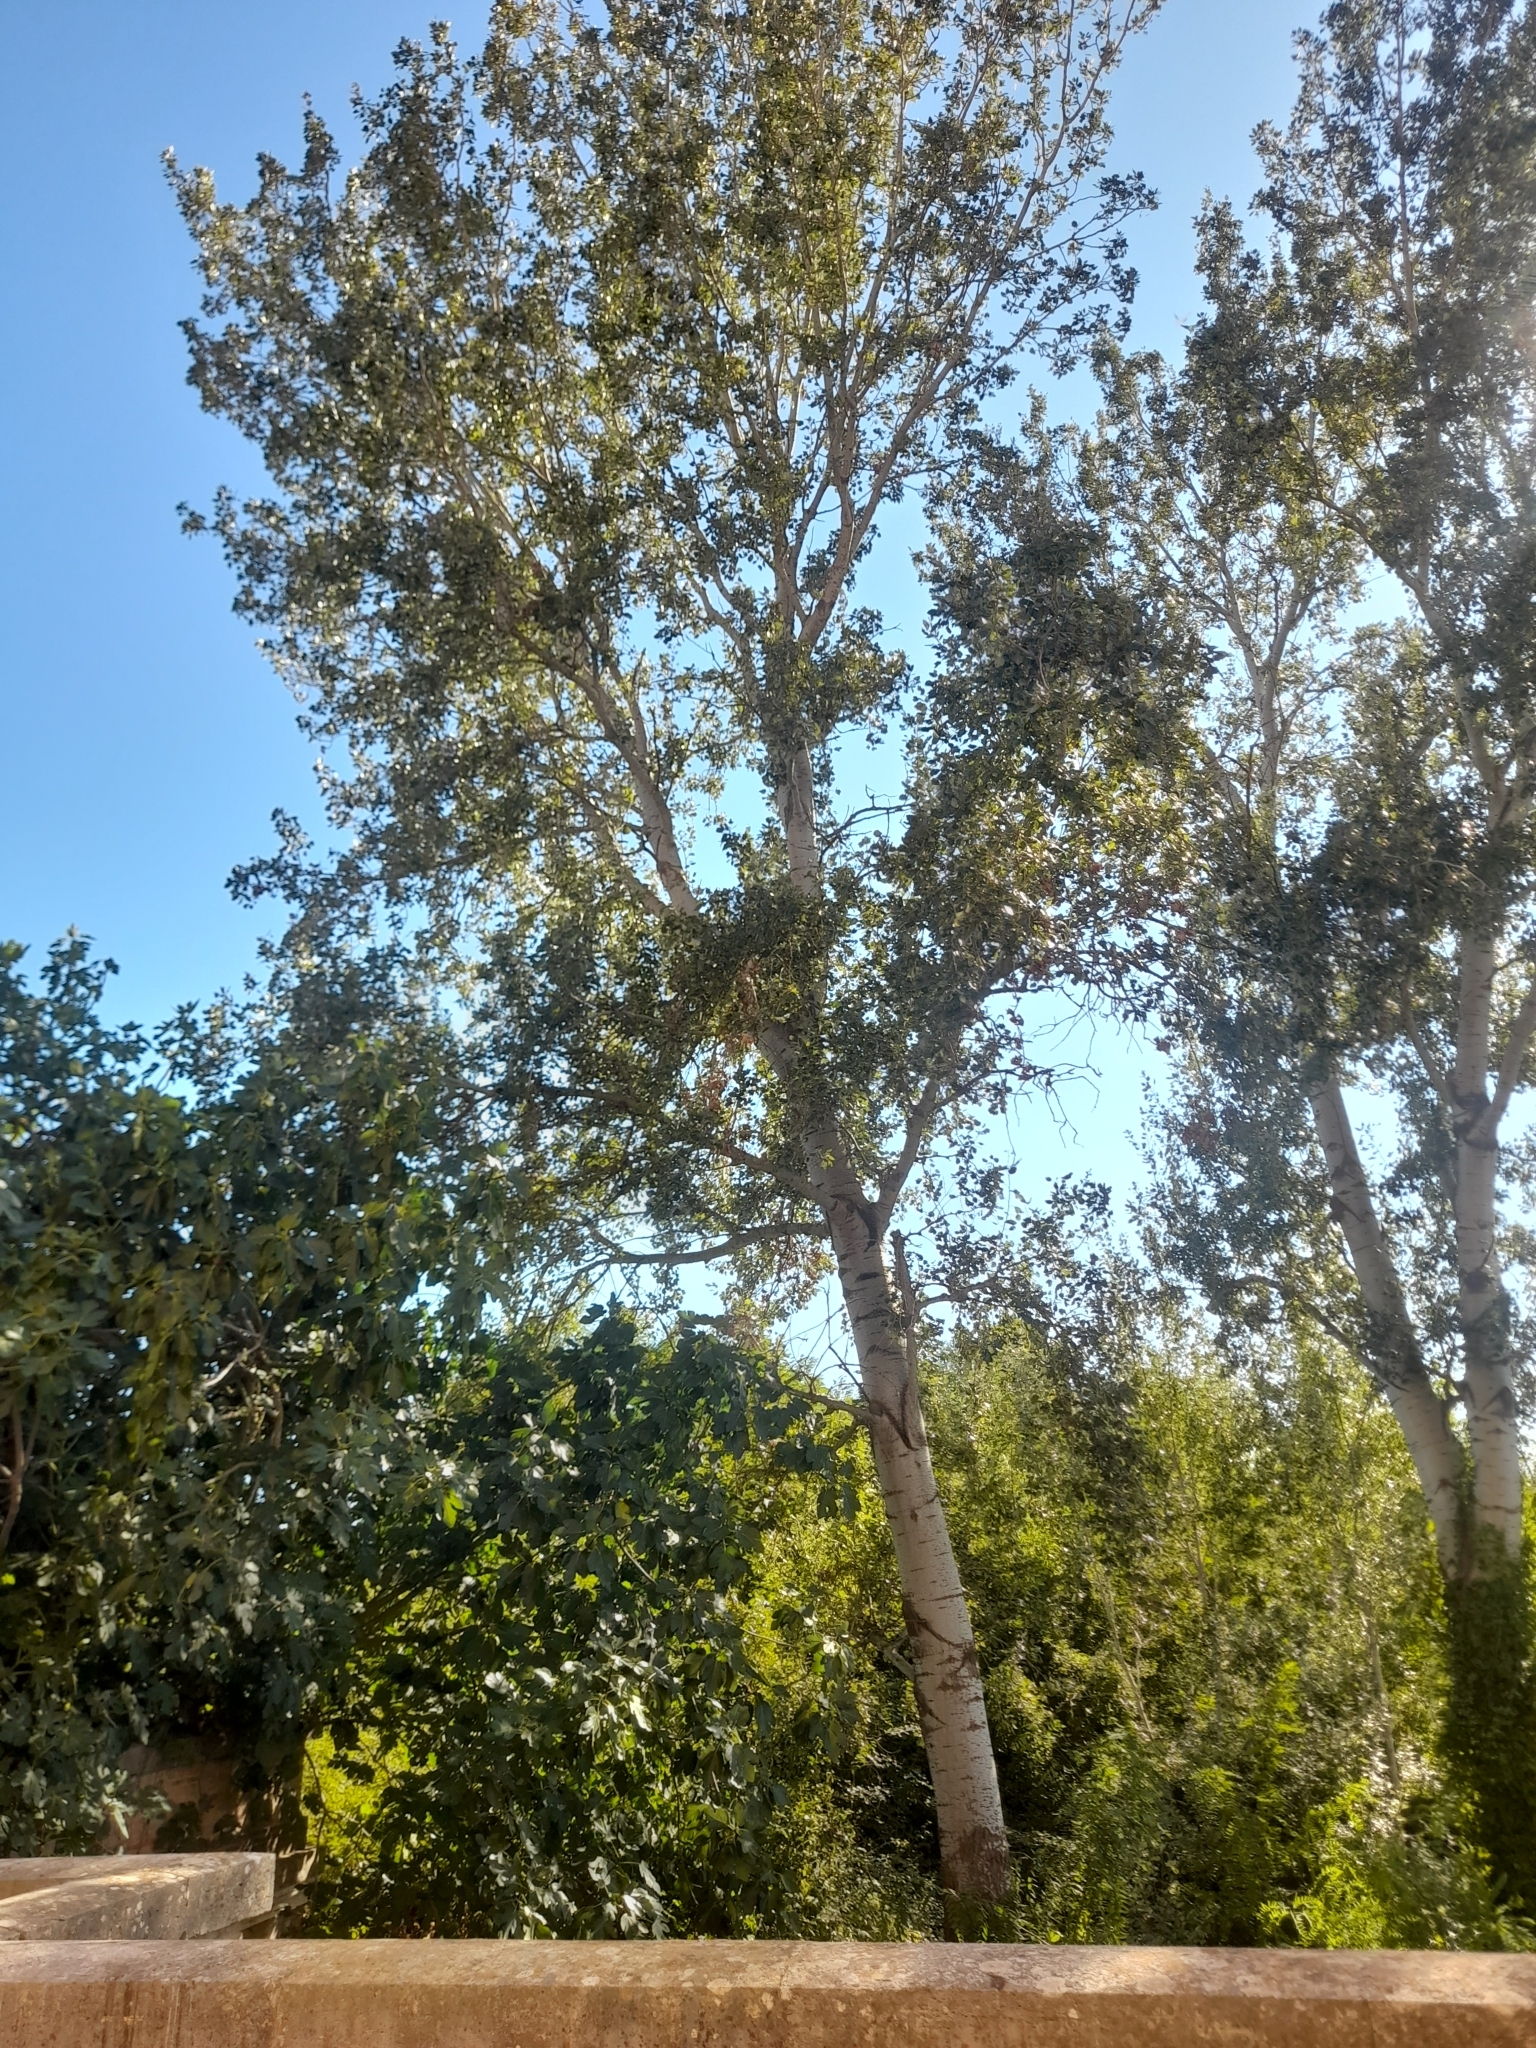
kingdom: Plantae
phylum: Tracheophyta
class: Magnoliopsida
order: Malpighiales
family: Salicaceae
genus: Populus
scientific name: Populus alba
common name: White poplar
